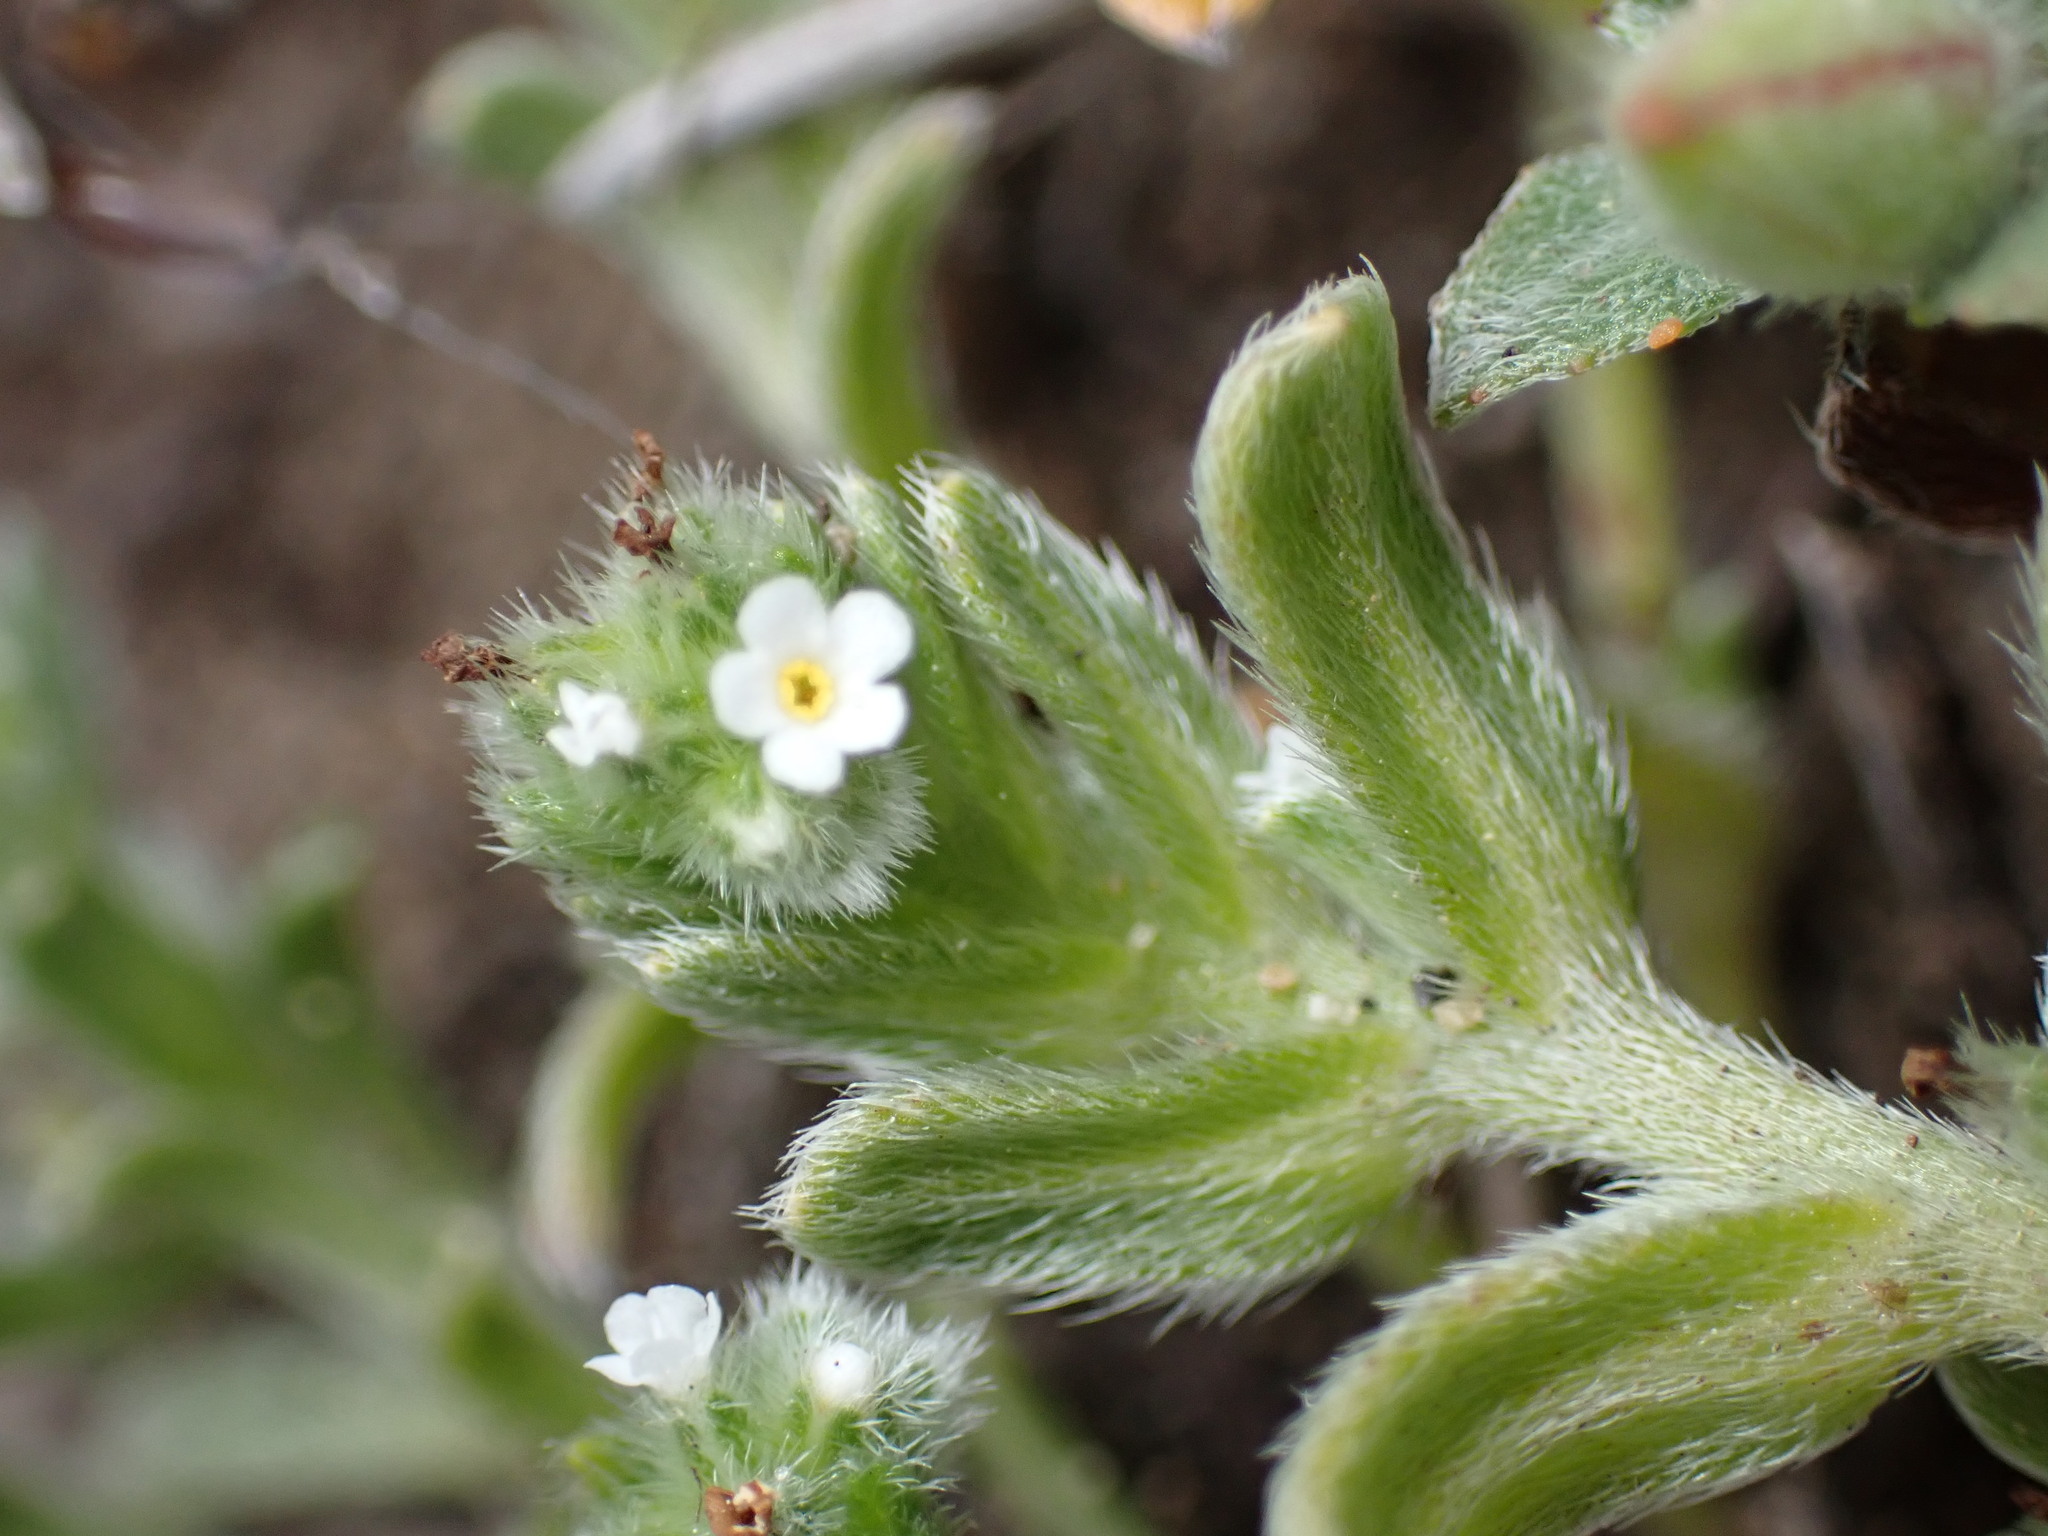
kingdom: Plantae
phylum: Tracheophyta
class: Magnoliopsida
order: Boraginales
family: Boraginaceae
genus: Cryptantha
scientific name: Cryptantha leiocarpa
